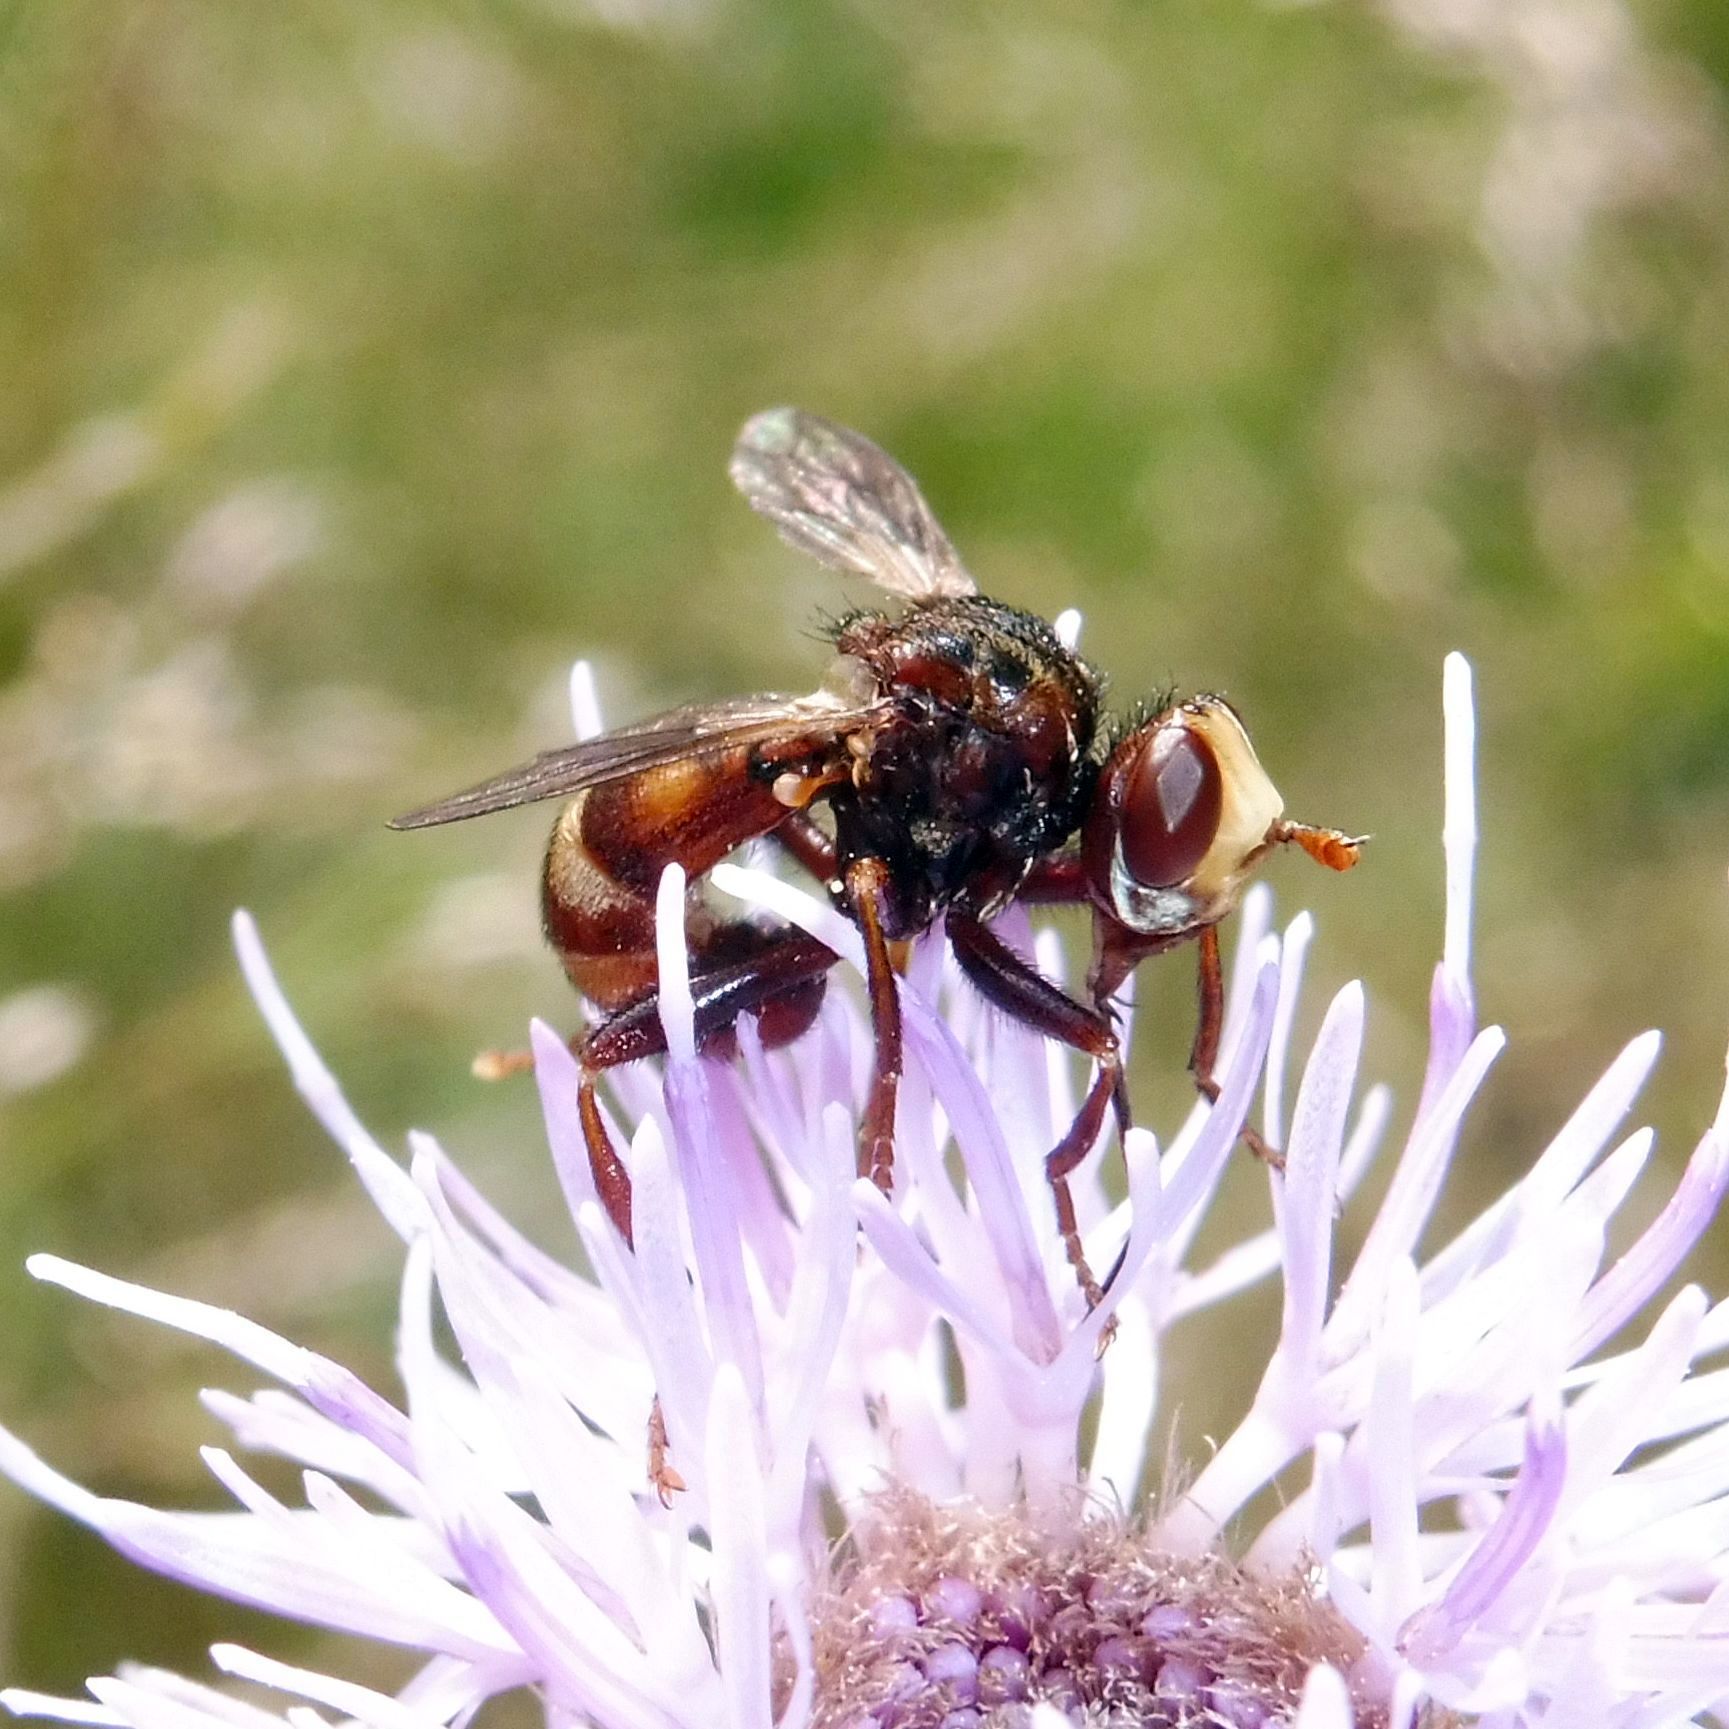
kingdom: Animalia
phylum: Arthropoda
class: Insecta
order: Diptera
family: Conopidae
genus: Sicus
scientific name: Sicus ferrugineus
